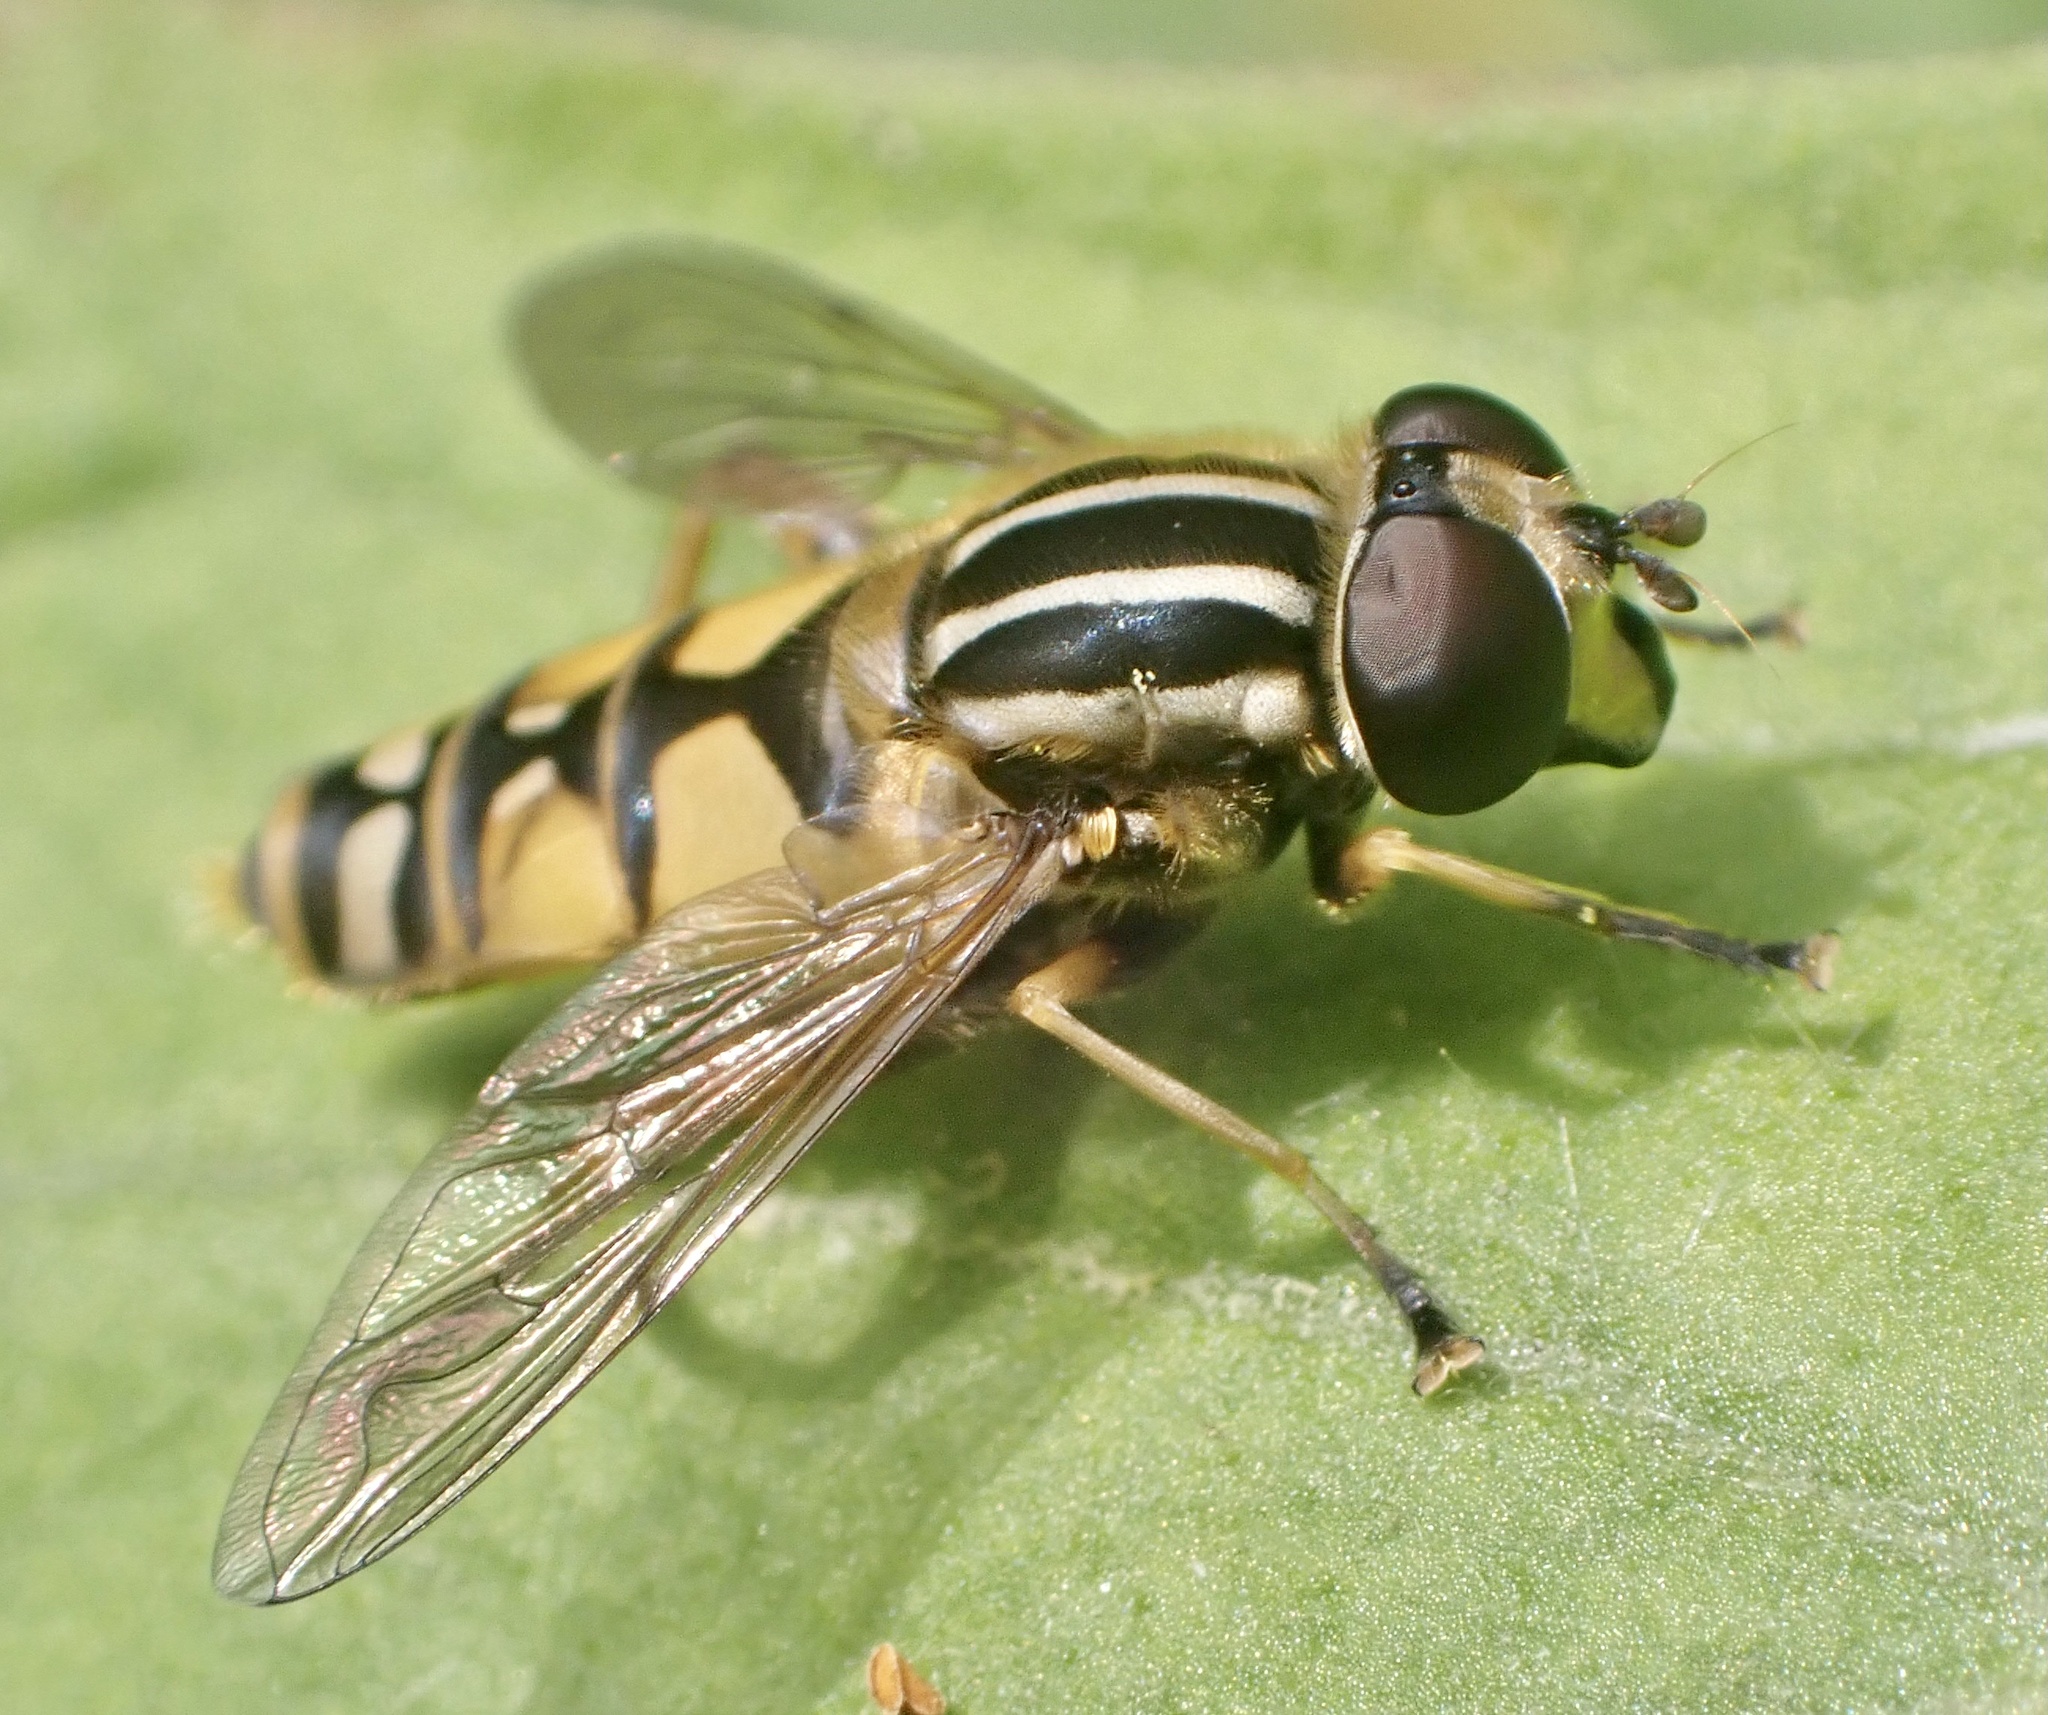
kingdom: Animalia
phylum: Arthropoda
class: Insecta
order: Diptera
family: Syrphidae
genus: Helophilus
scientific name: Helophilus pendulus
